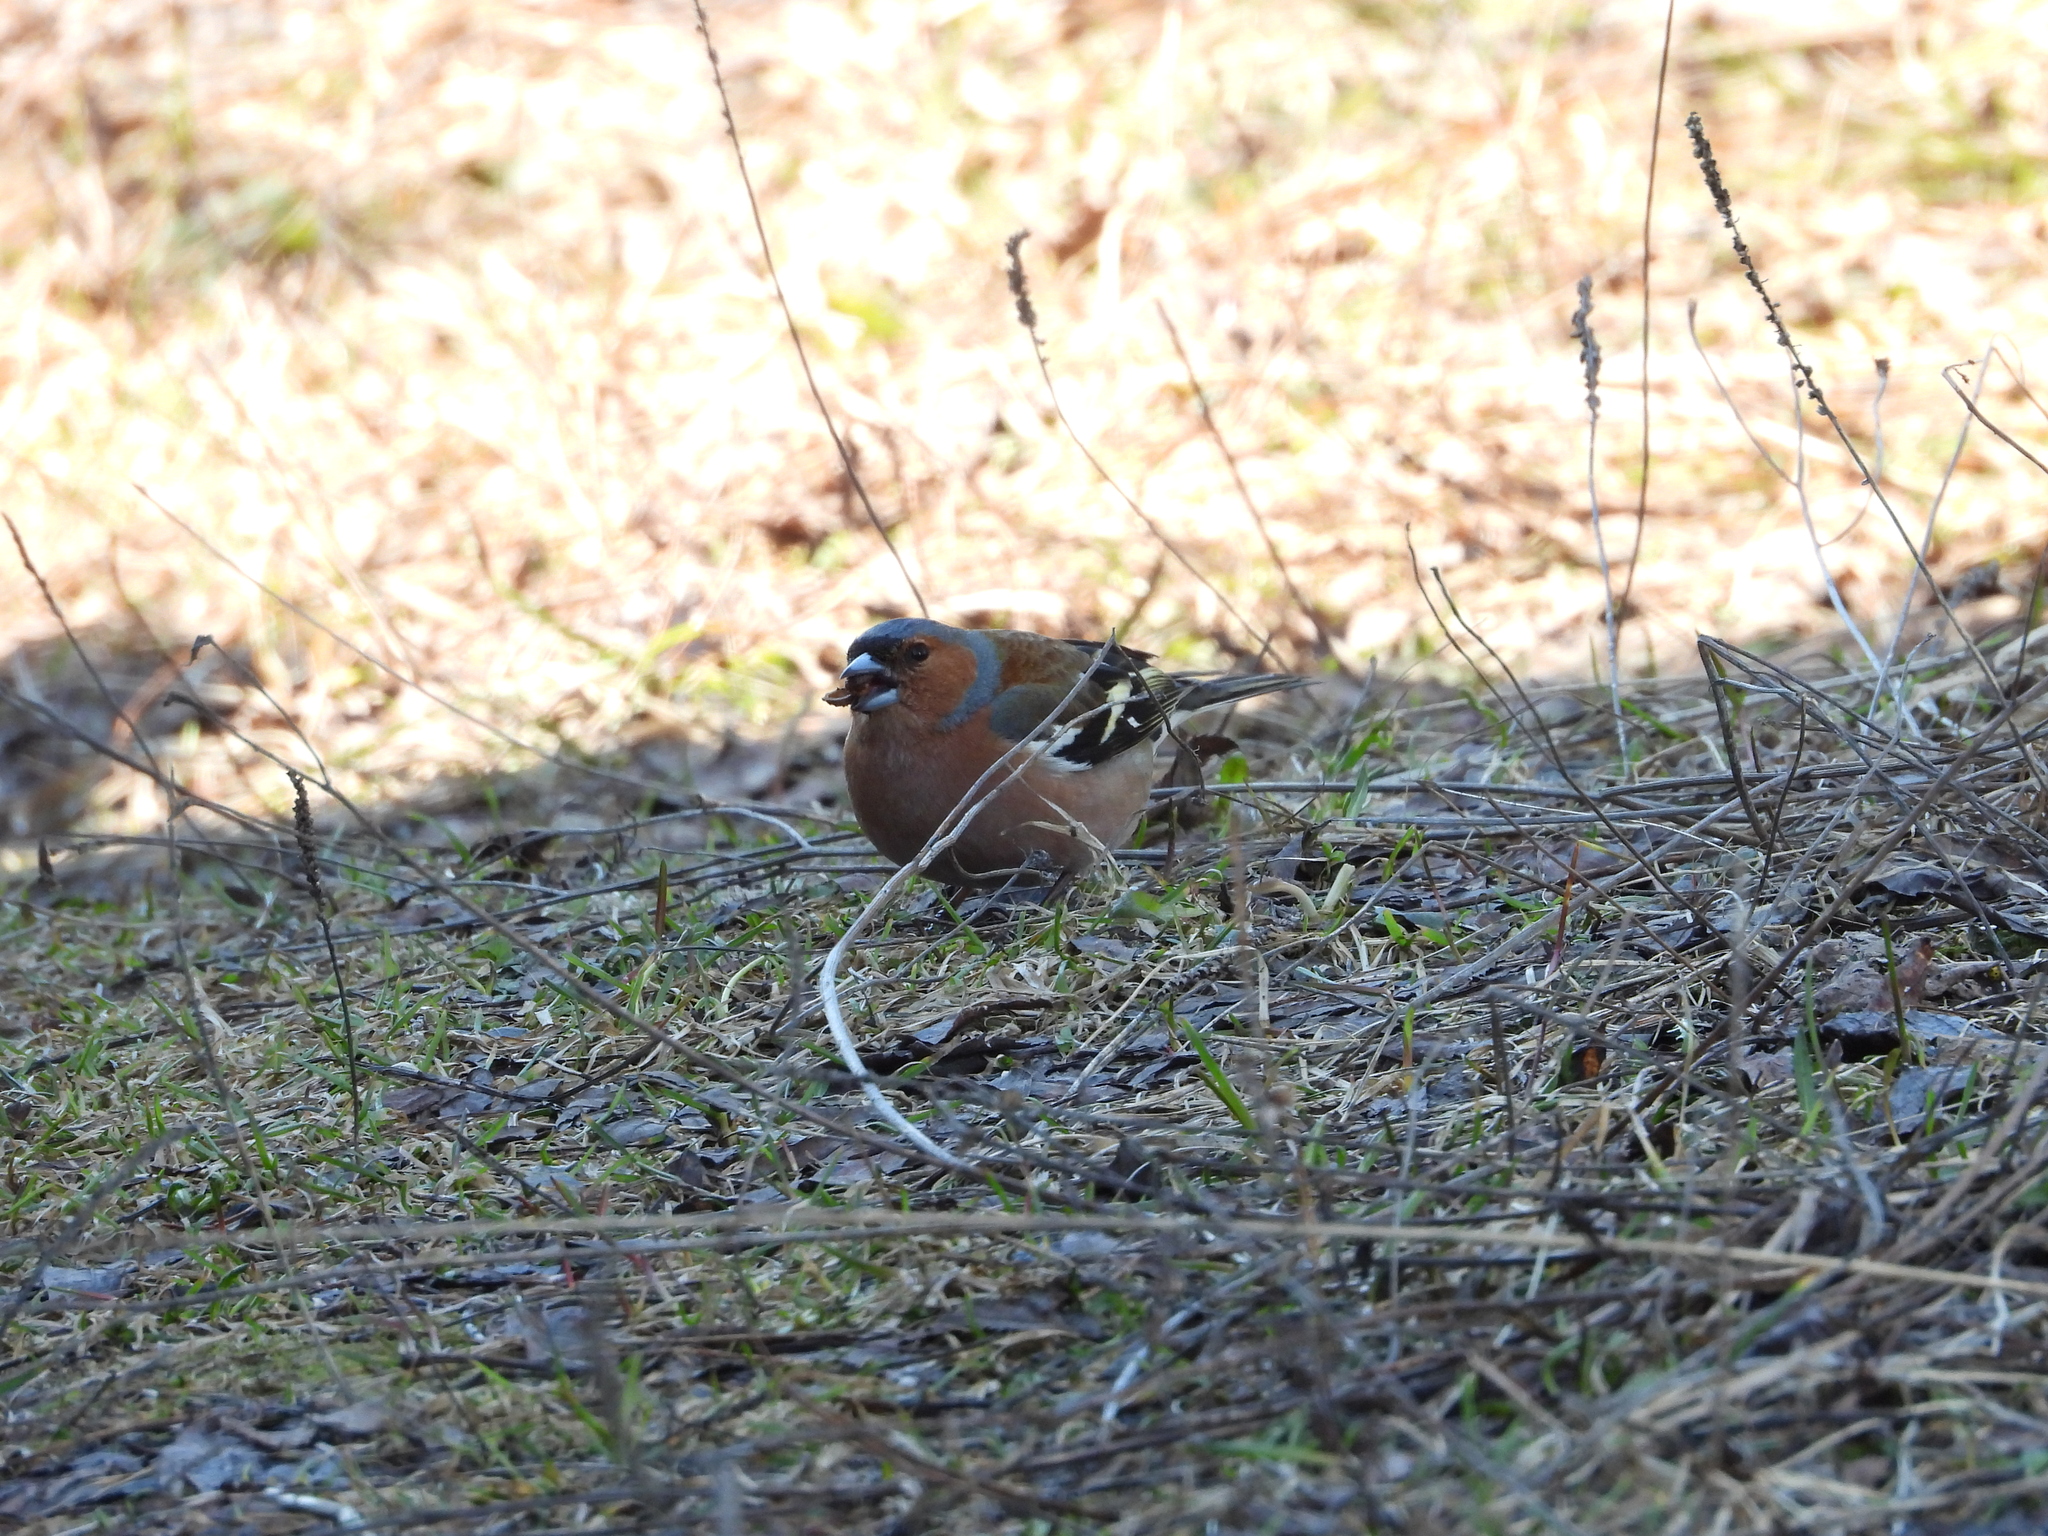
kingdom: Animalia
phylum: Chordata
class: Aves
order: Passeriformes
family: Fringillidae
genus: Fringilla
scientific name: Fringilla coelebs
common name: Common chaffinch
